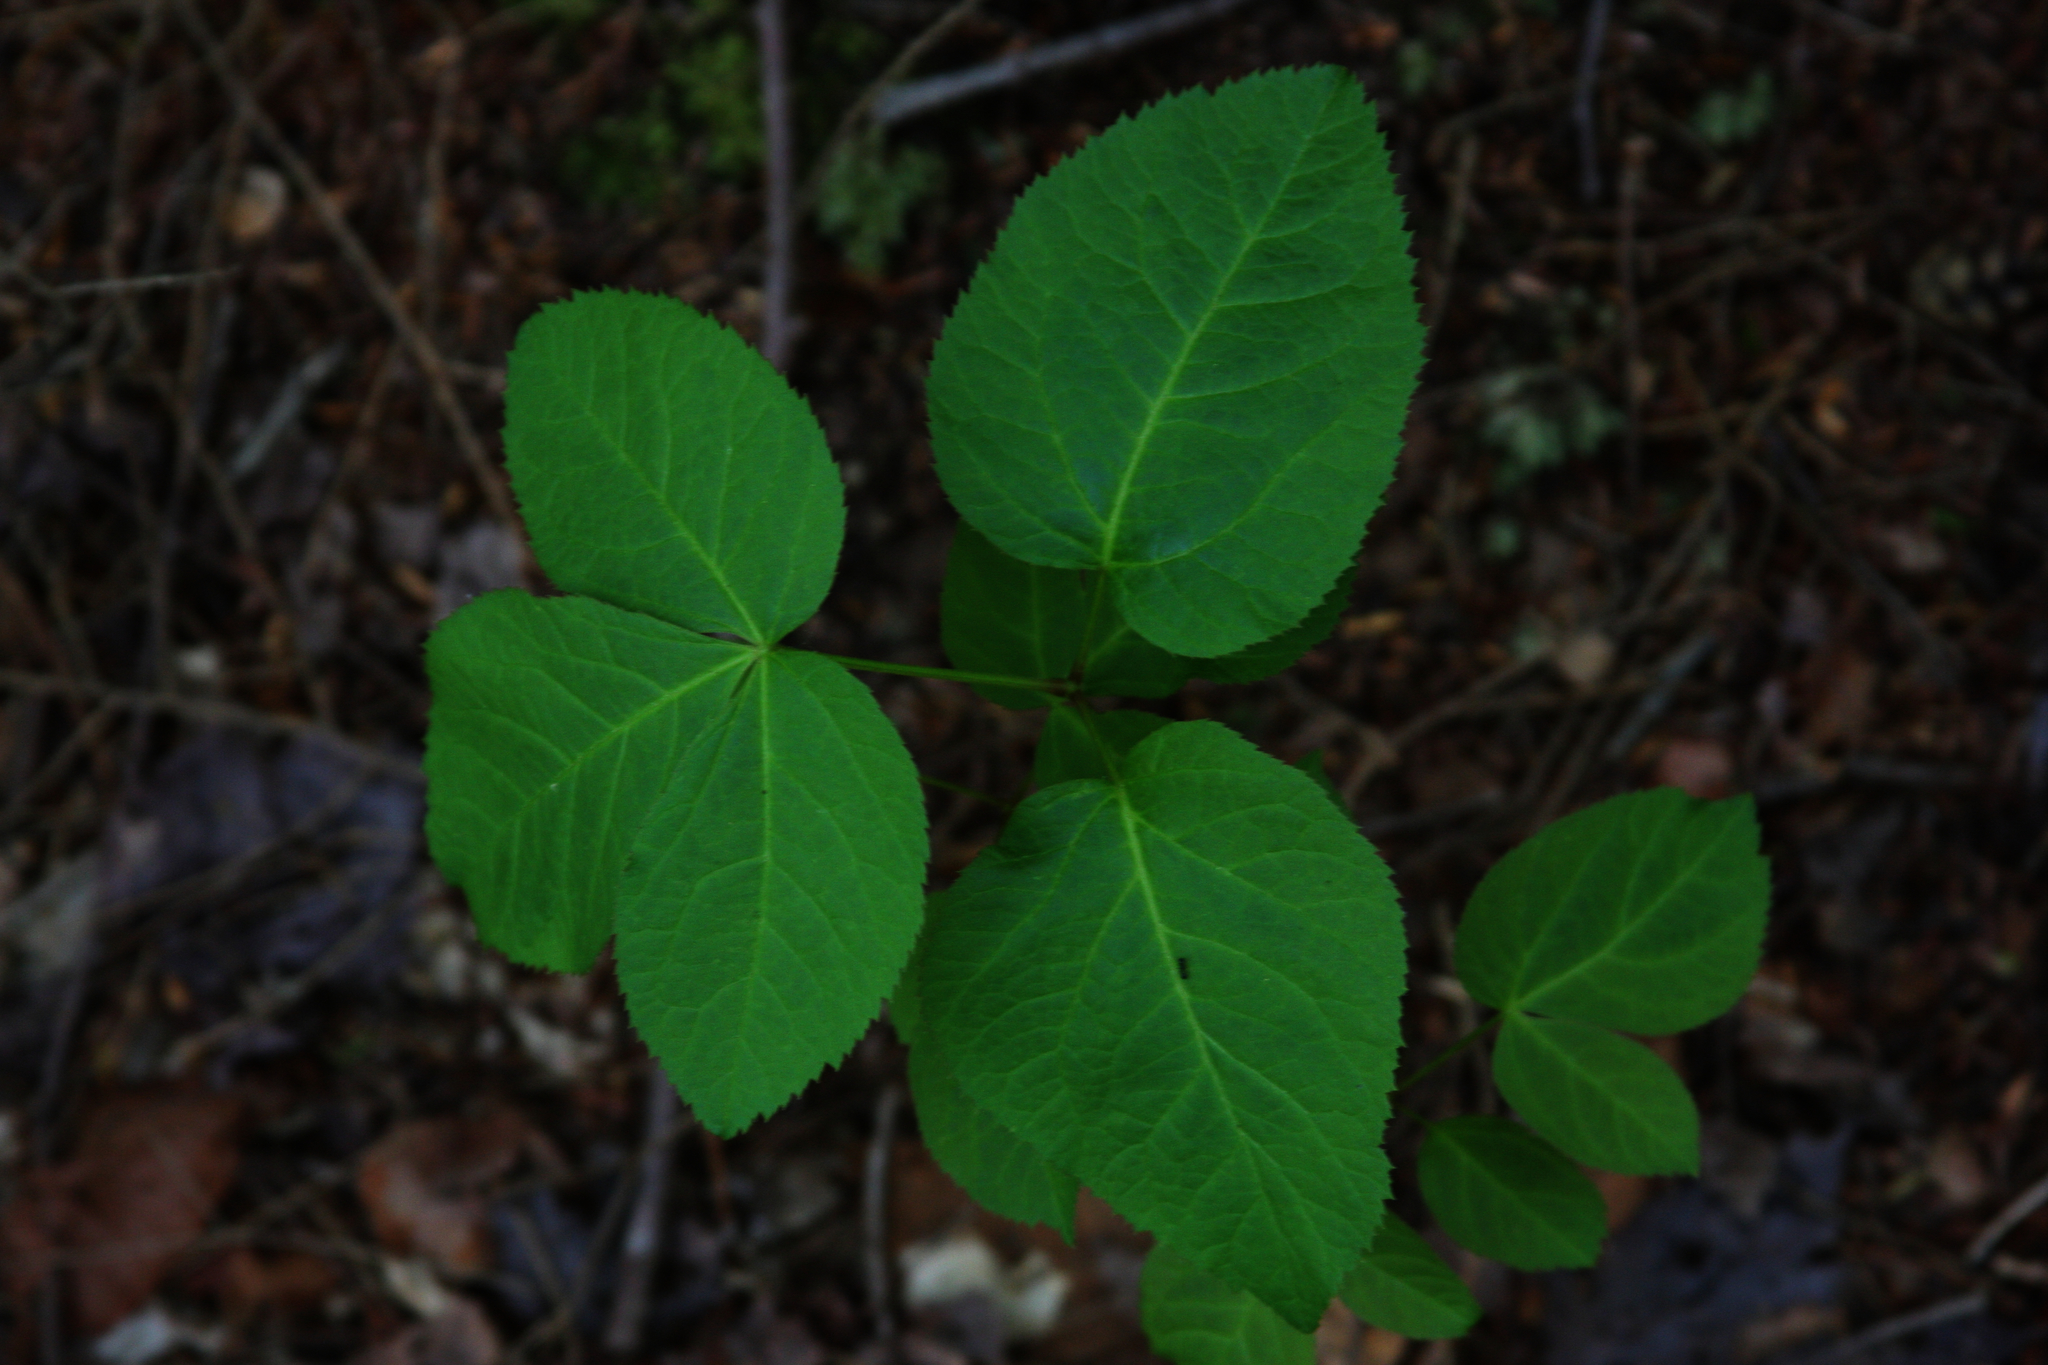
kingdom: Plantae
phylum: Tracheophyta
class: Magnoliopsida
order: Apiales
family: Araliaceae
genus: Aralia
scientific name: Aralia nudicaulis
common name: Wild sarsaparilla
